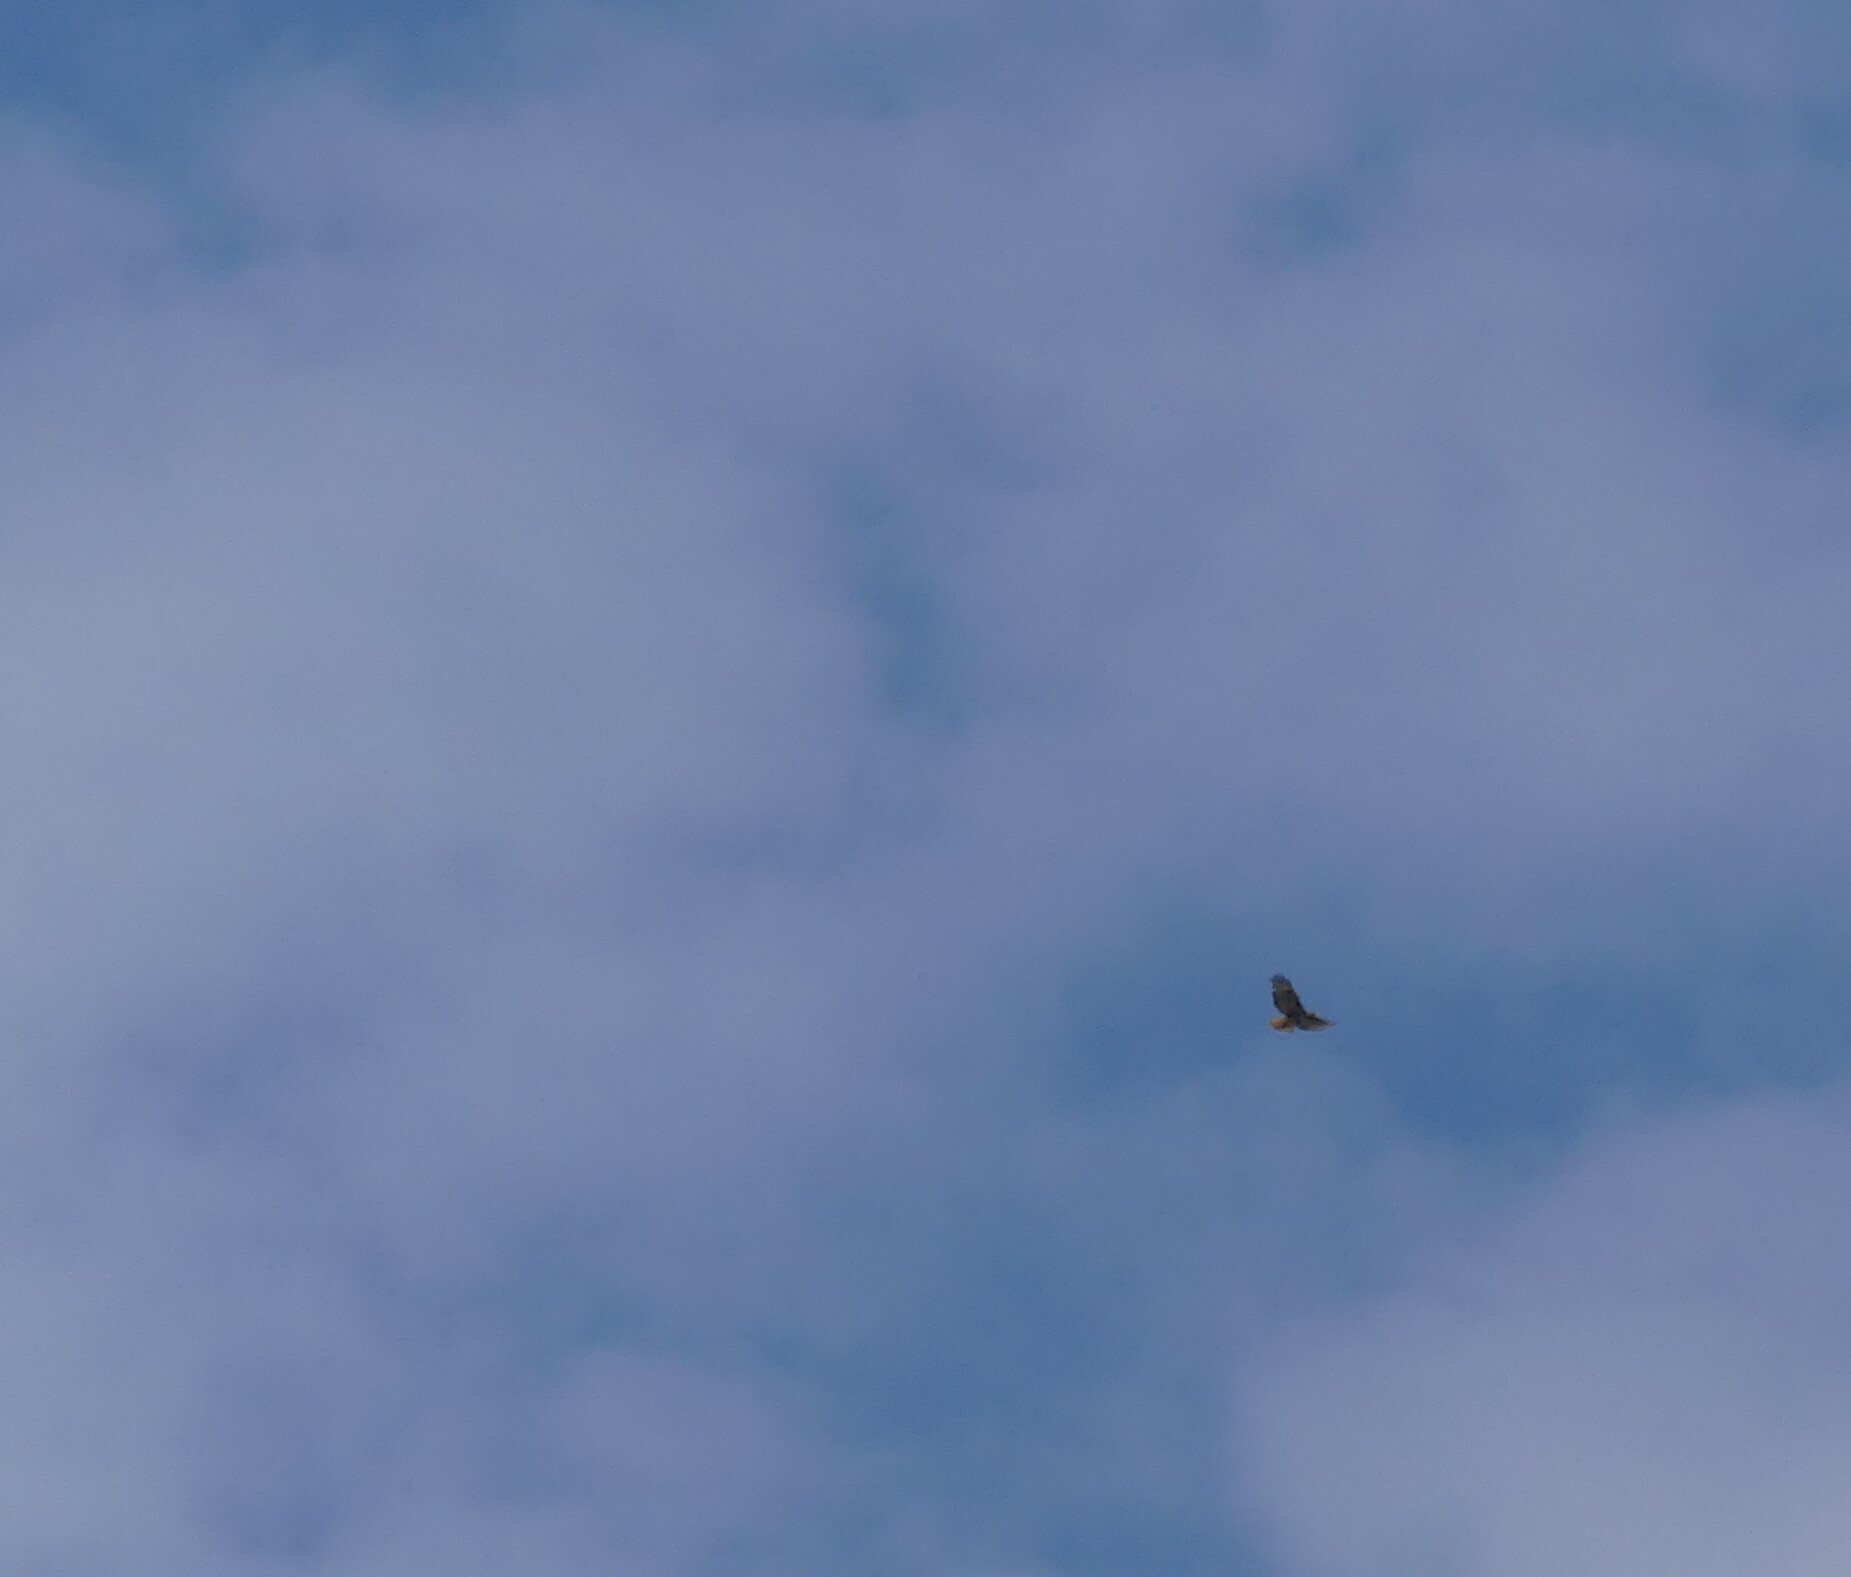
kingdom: Animalia
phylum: Chordata
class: Aves
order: Accipitriformes
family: Accipitridae
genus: Buteo
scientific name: Buteo jamaicensis
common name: Red-tailed hawk
